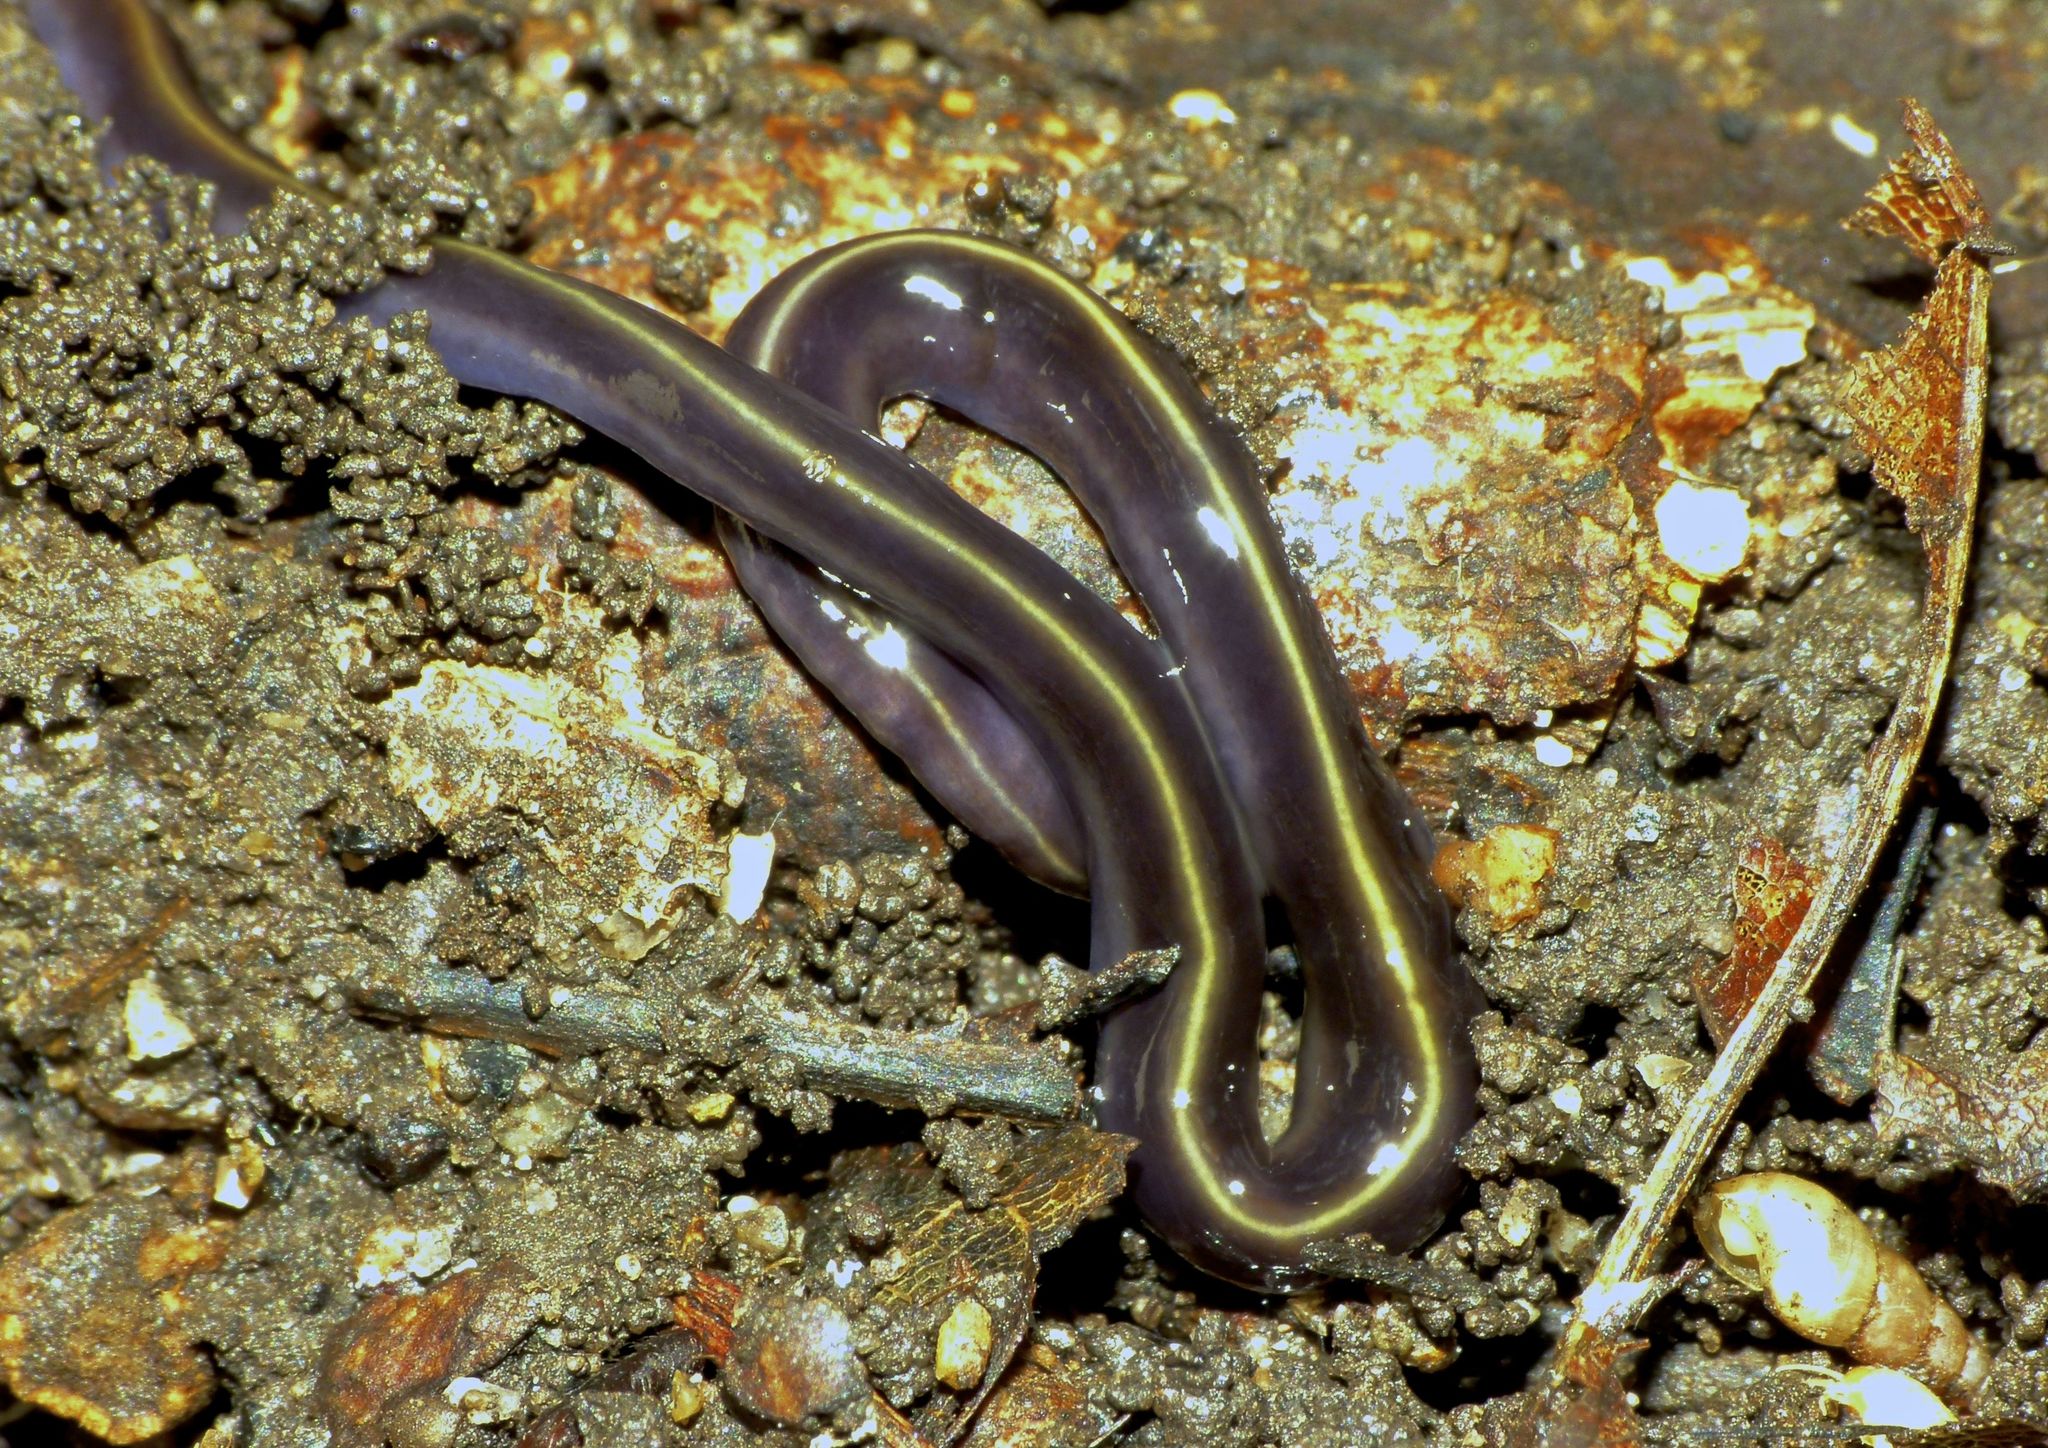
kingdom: Animalia
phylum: Platyhelminthes
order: Tricladida
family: Geoplanidae
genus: Caenoplana
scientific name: Caenoplana coerulea
